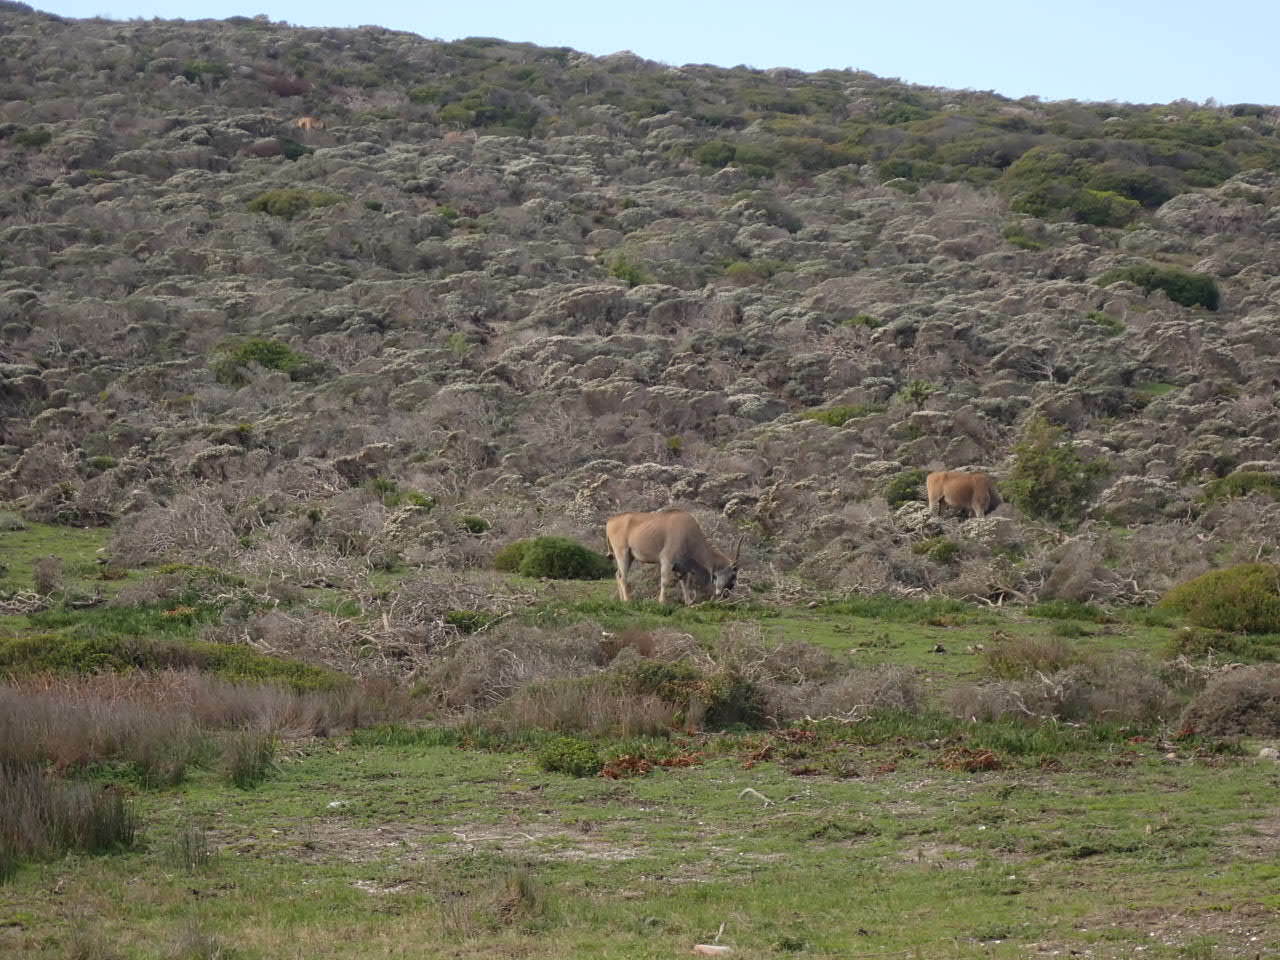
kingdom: Animalia
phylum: Chordata
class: Mammalia
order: Artiodactyla
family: Bovidae
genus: Taurotragus
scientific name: Taurotragus oryx
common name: Common eland
